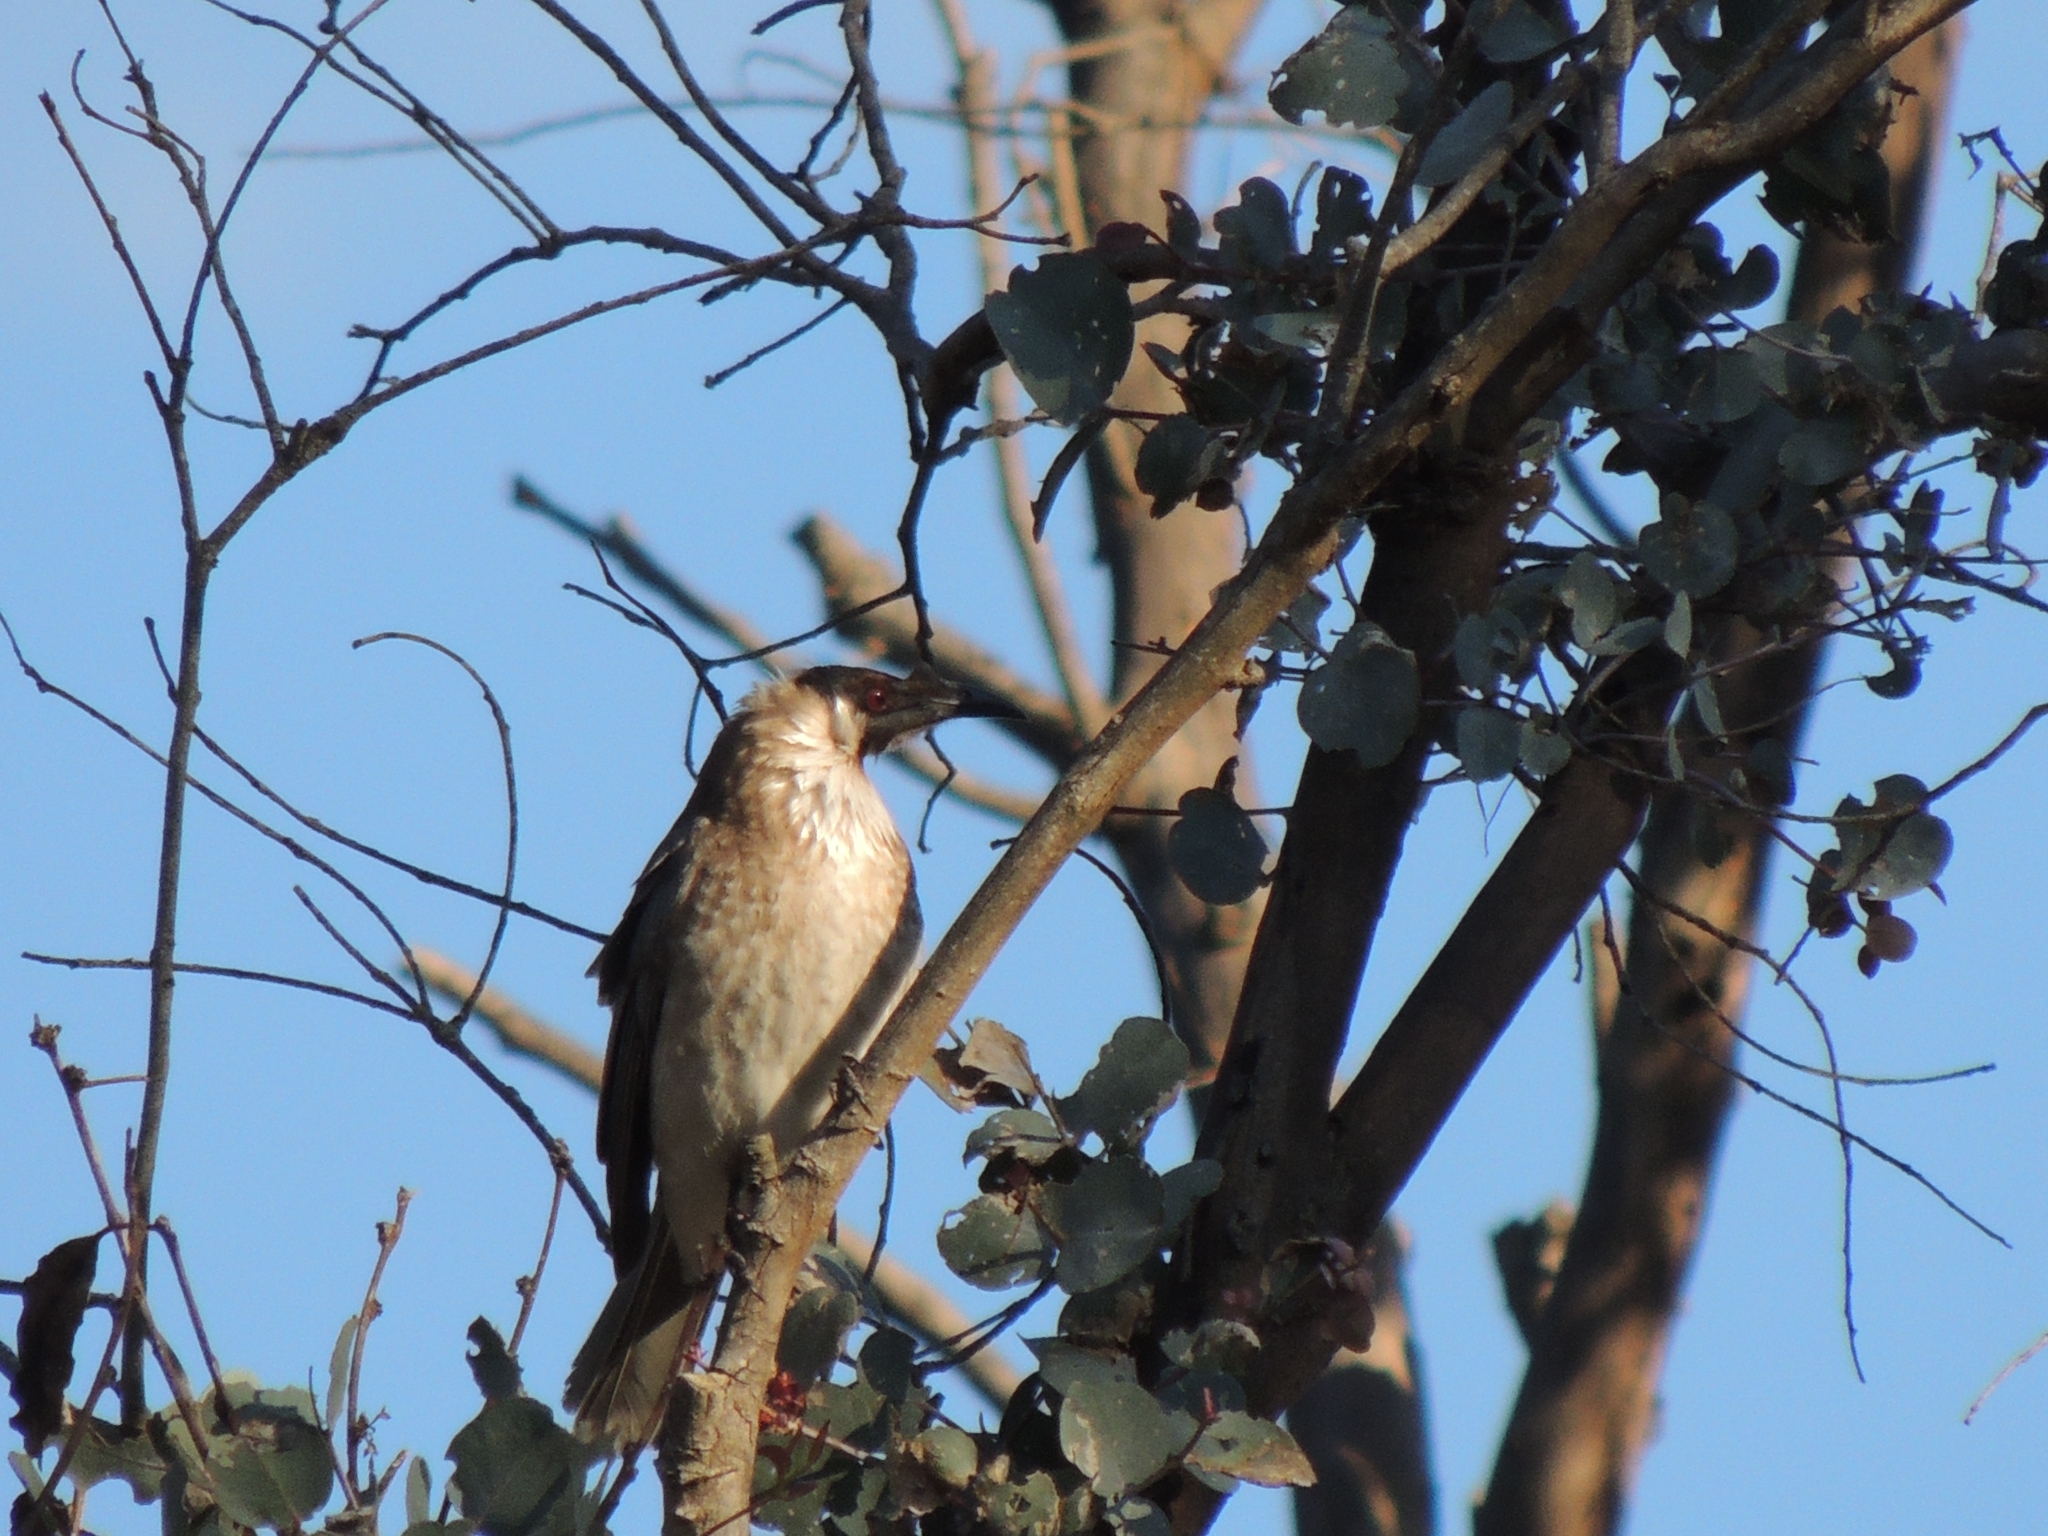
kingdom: Animalia
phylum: Chordata
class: Aves
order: Passeriformes
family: Meliphagidae
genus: Philemon
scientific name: Philemon corniculatus
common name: Noisy friarbird
